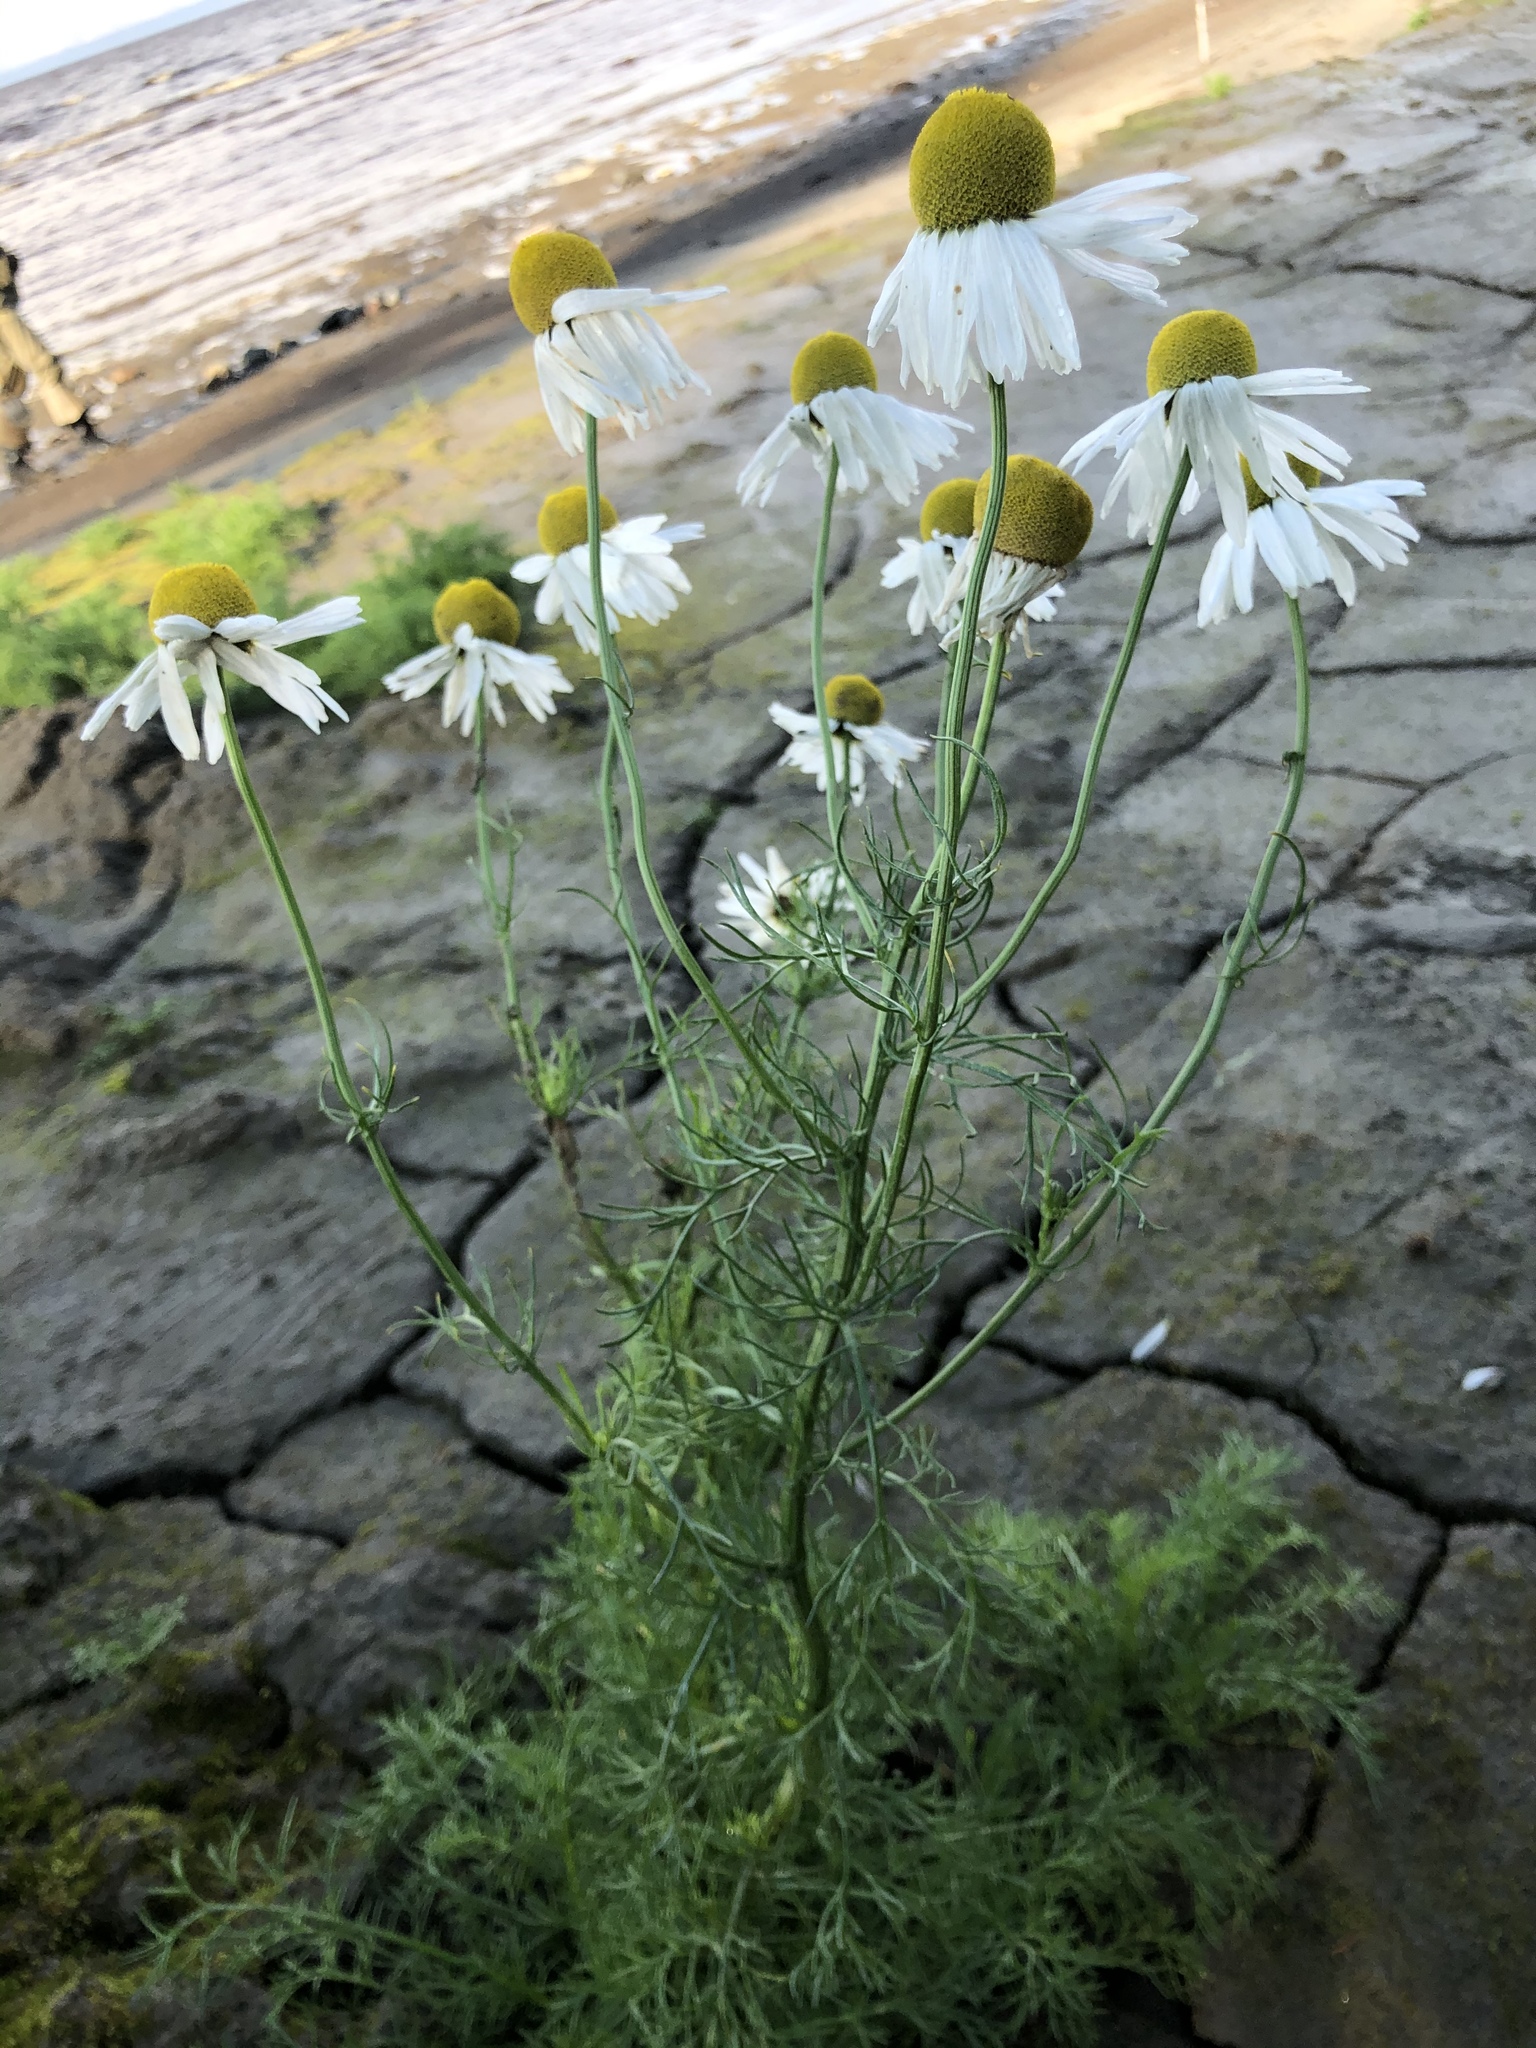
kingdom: Plantae
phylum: Tracheophyta
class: Magnoliopsida
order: Asterales
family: Asteraceae
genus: Tripleurospermum
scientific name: Tripleurospermum hookeri
